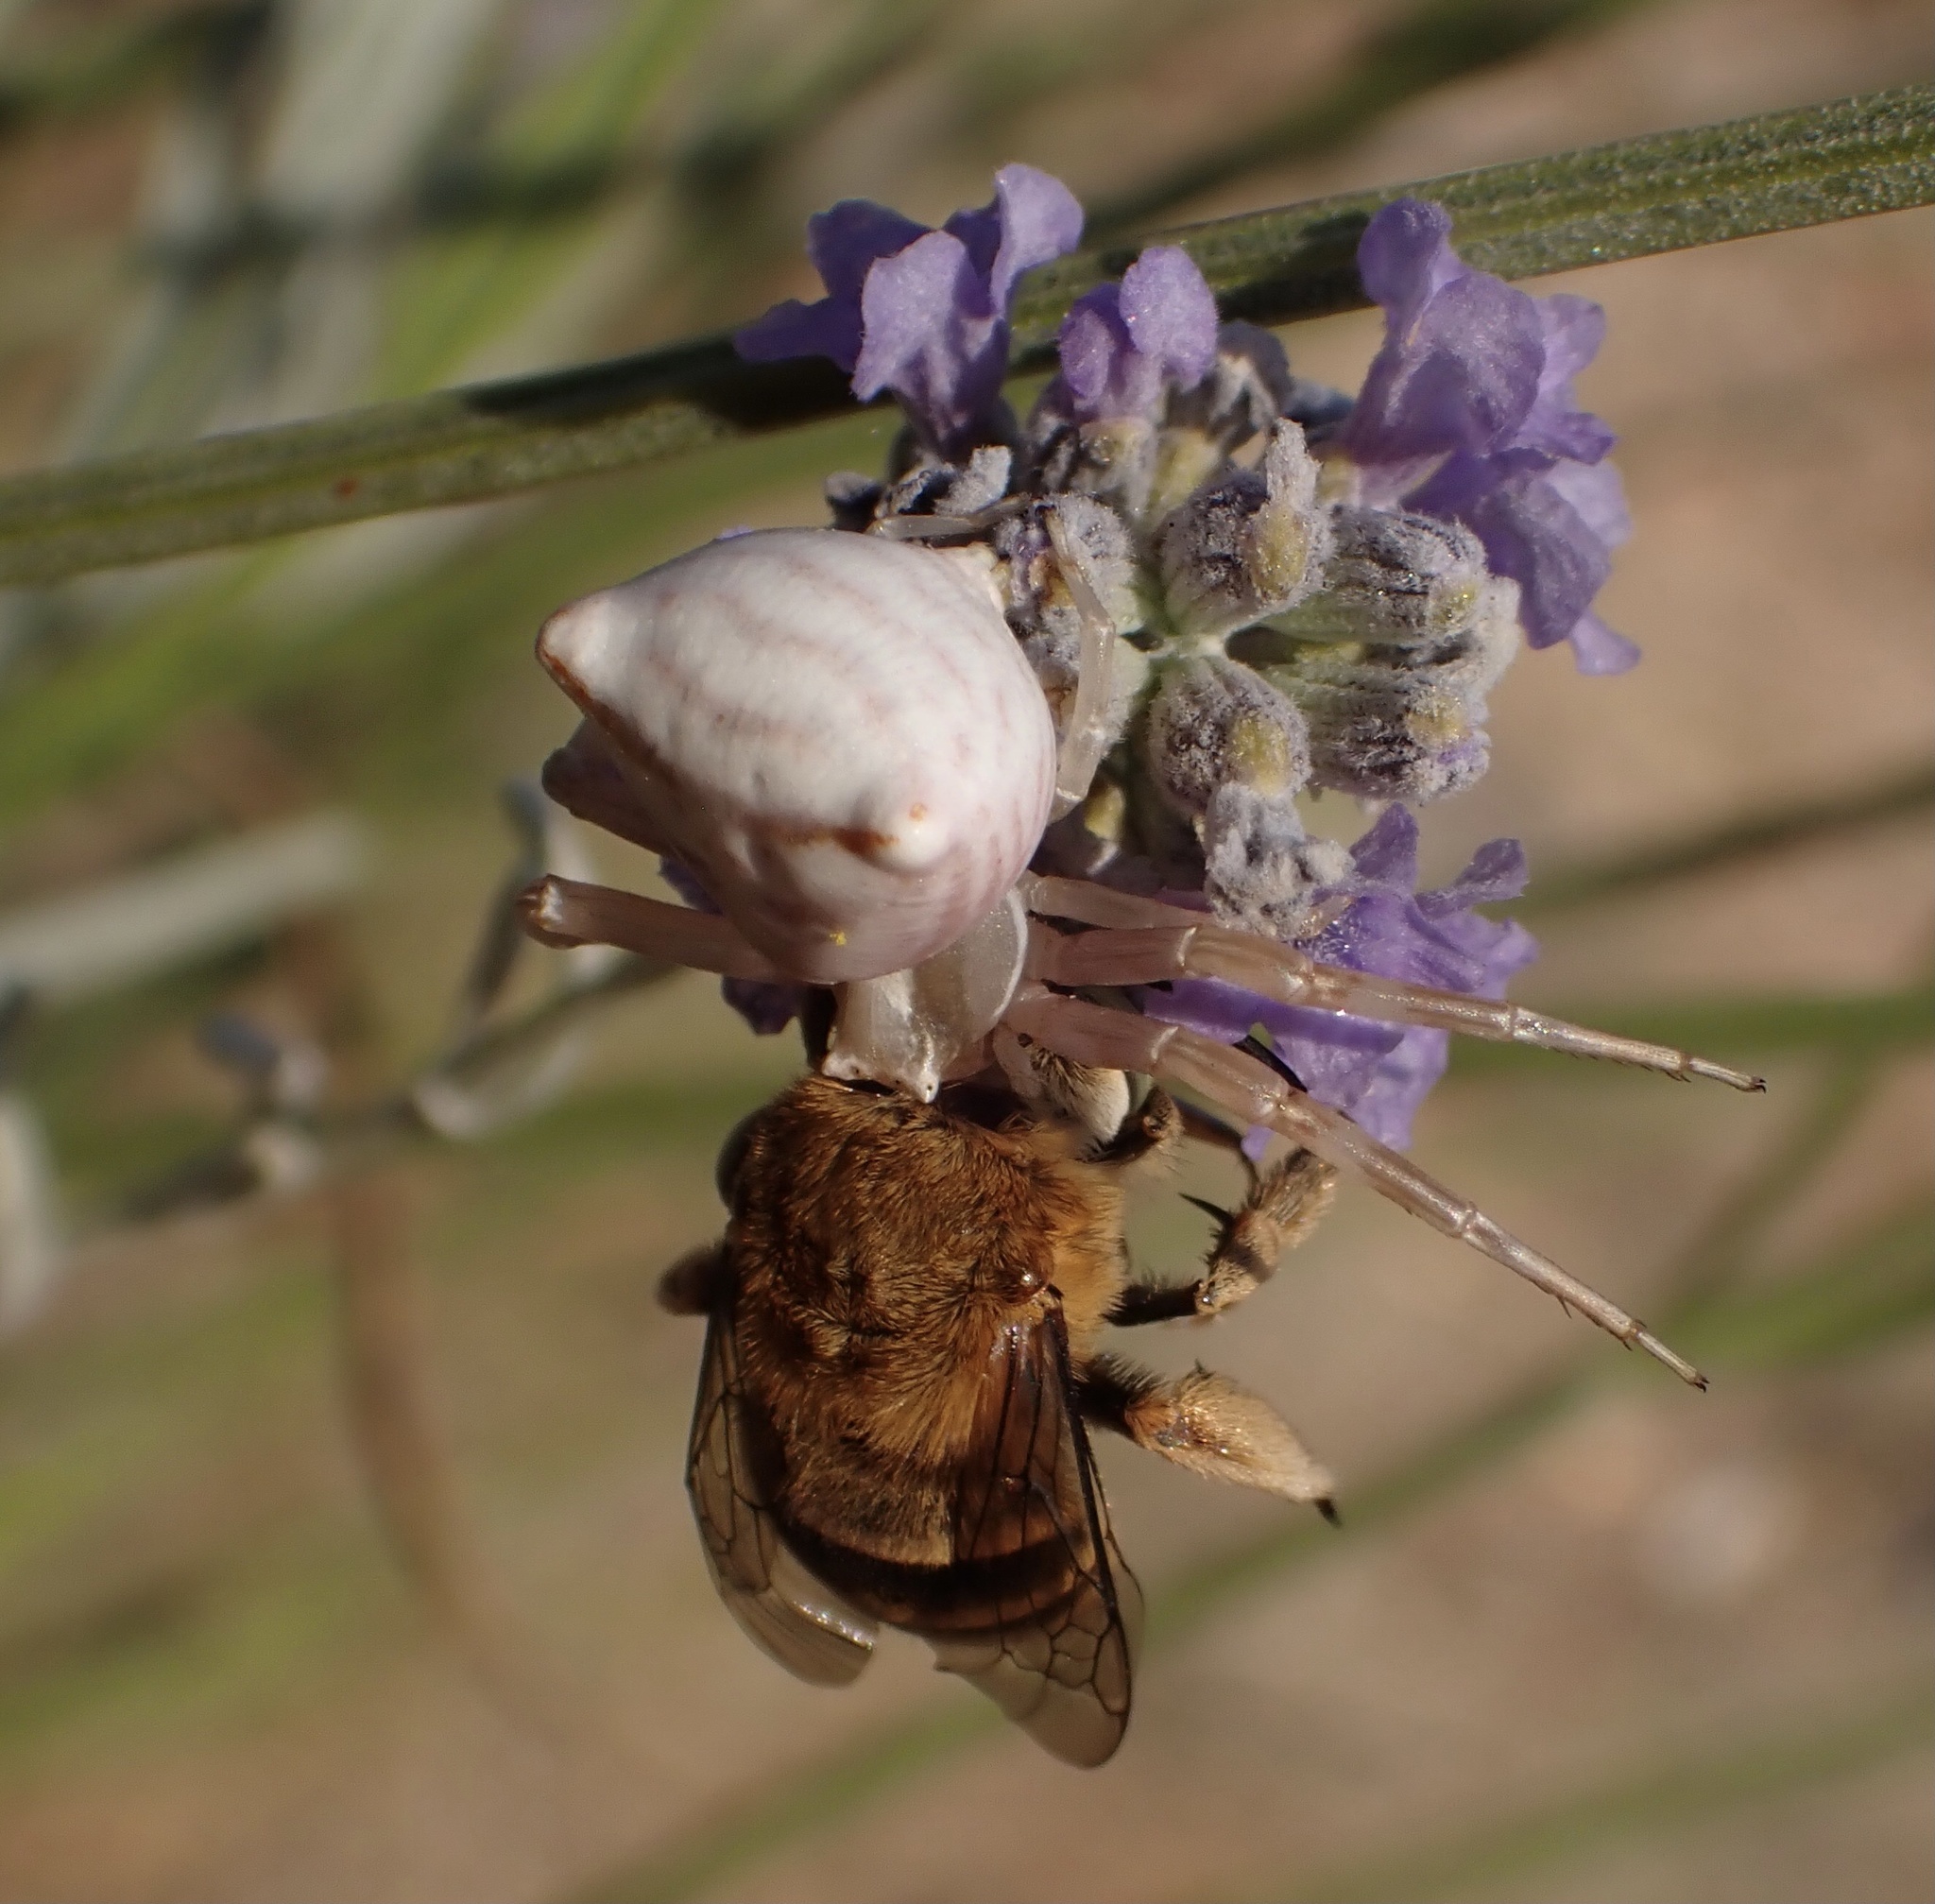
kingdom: Animalia
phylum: Arthropoda
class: Insecta
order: Hymenoptera
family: Apidae
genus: Amegilla
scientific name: Amegilla garrula
